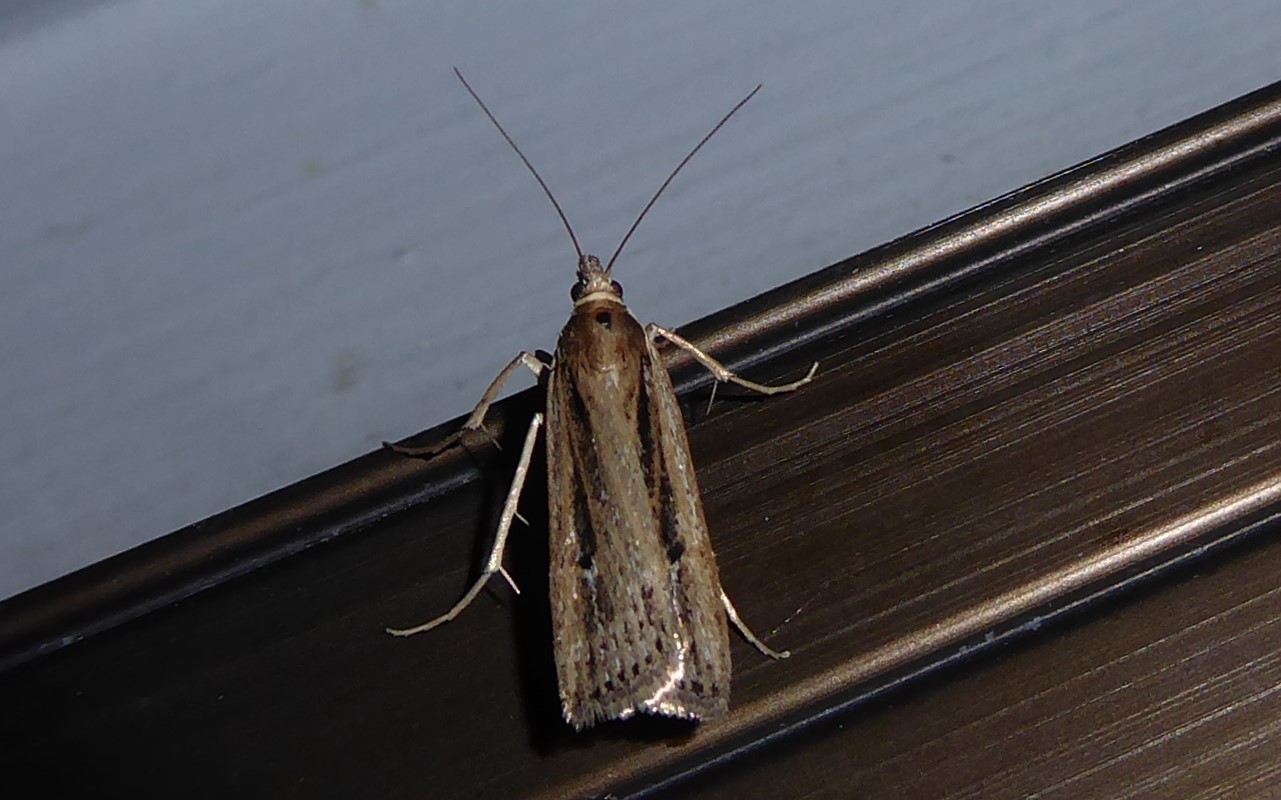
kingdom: Animalia
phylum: Arthropoda
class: Insecta
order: Lepidoptera
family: Crambidae
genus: Eudonia
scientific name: Eudonia sabulosella
